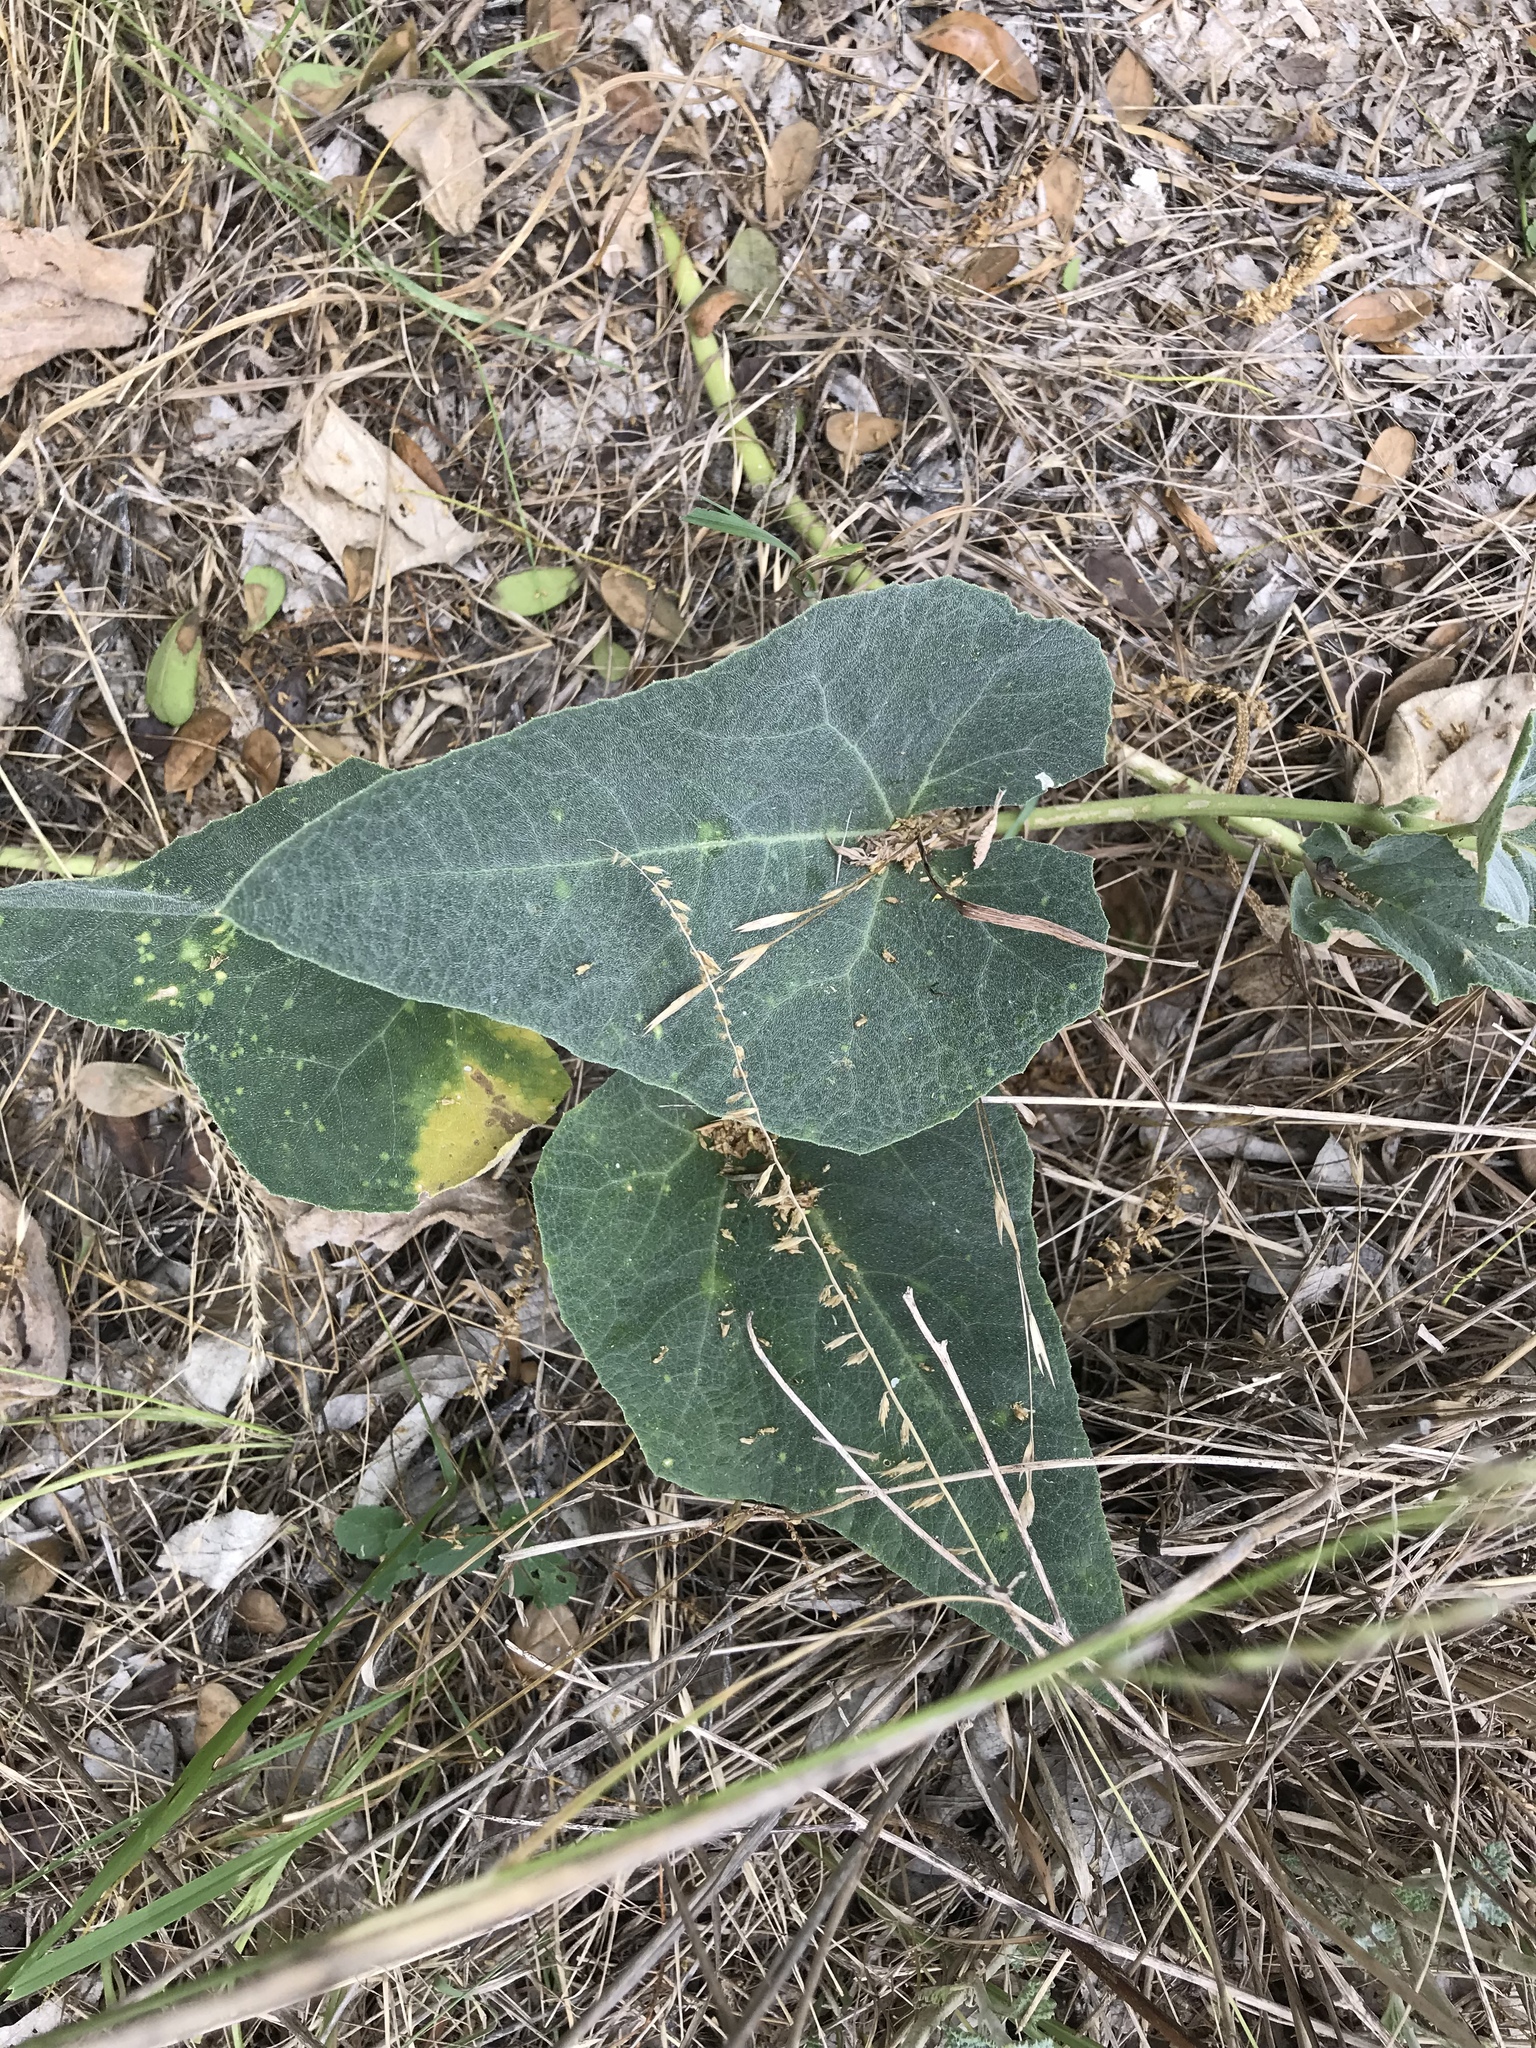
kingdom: Plantae
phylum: Tracheophyta
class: Magnoliopsida
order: Cucurbitales
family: Cucurbitaceae
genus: Cucurbita
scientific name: Cucurbita foetidissima
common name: Buffalo gourd
